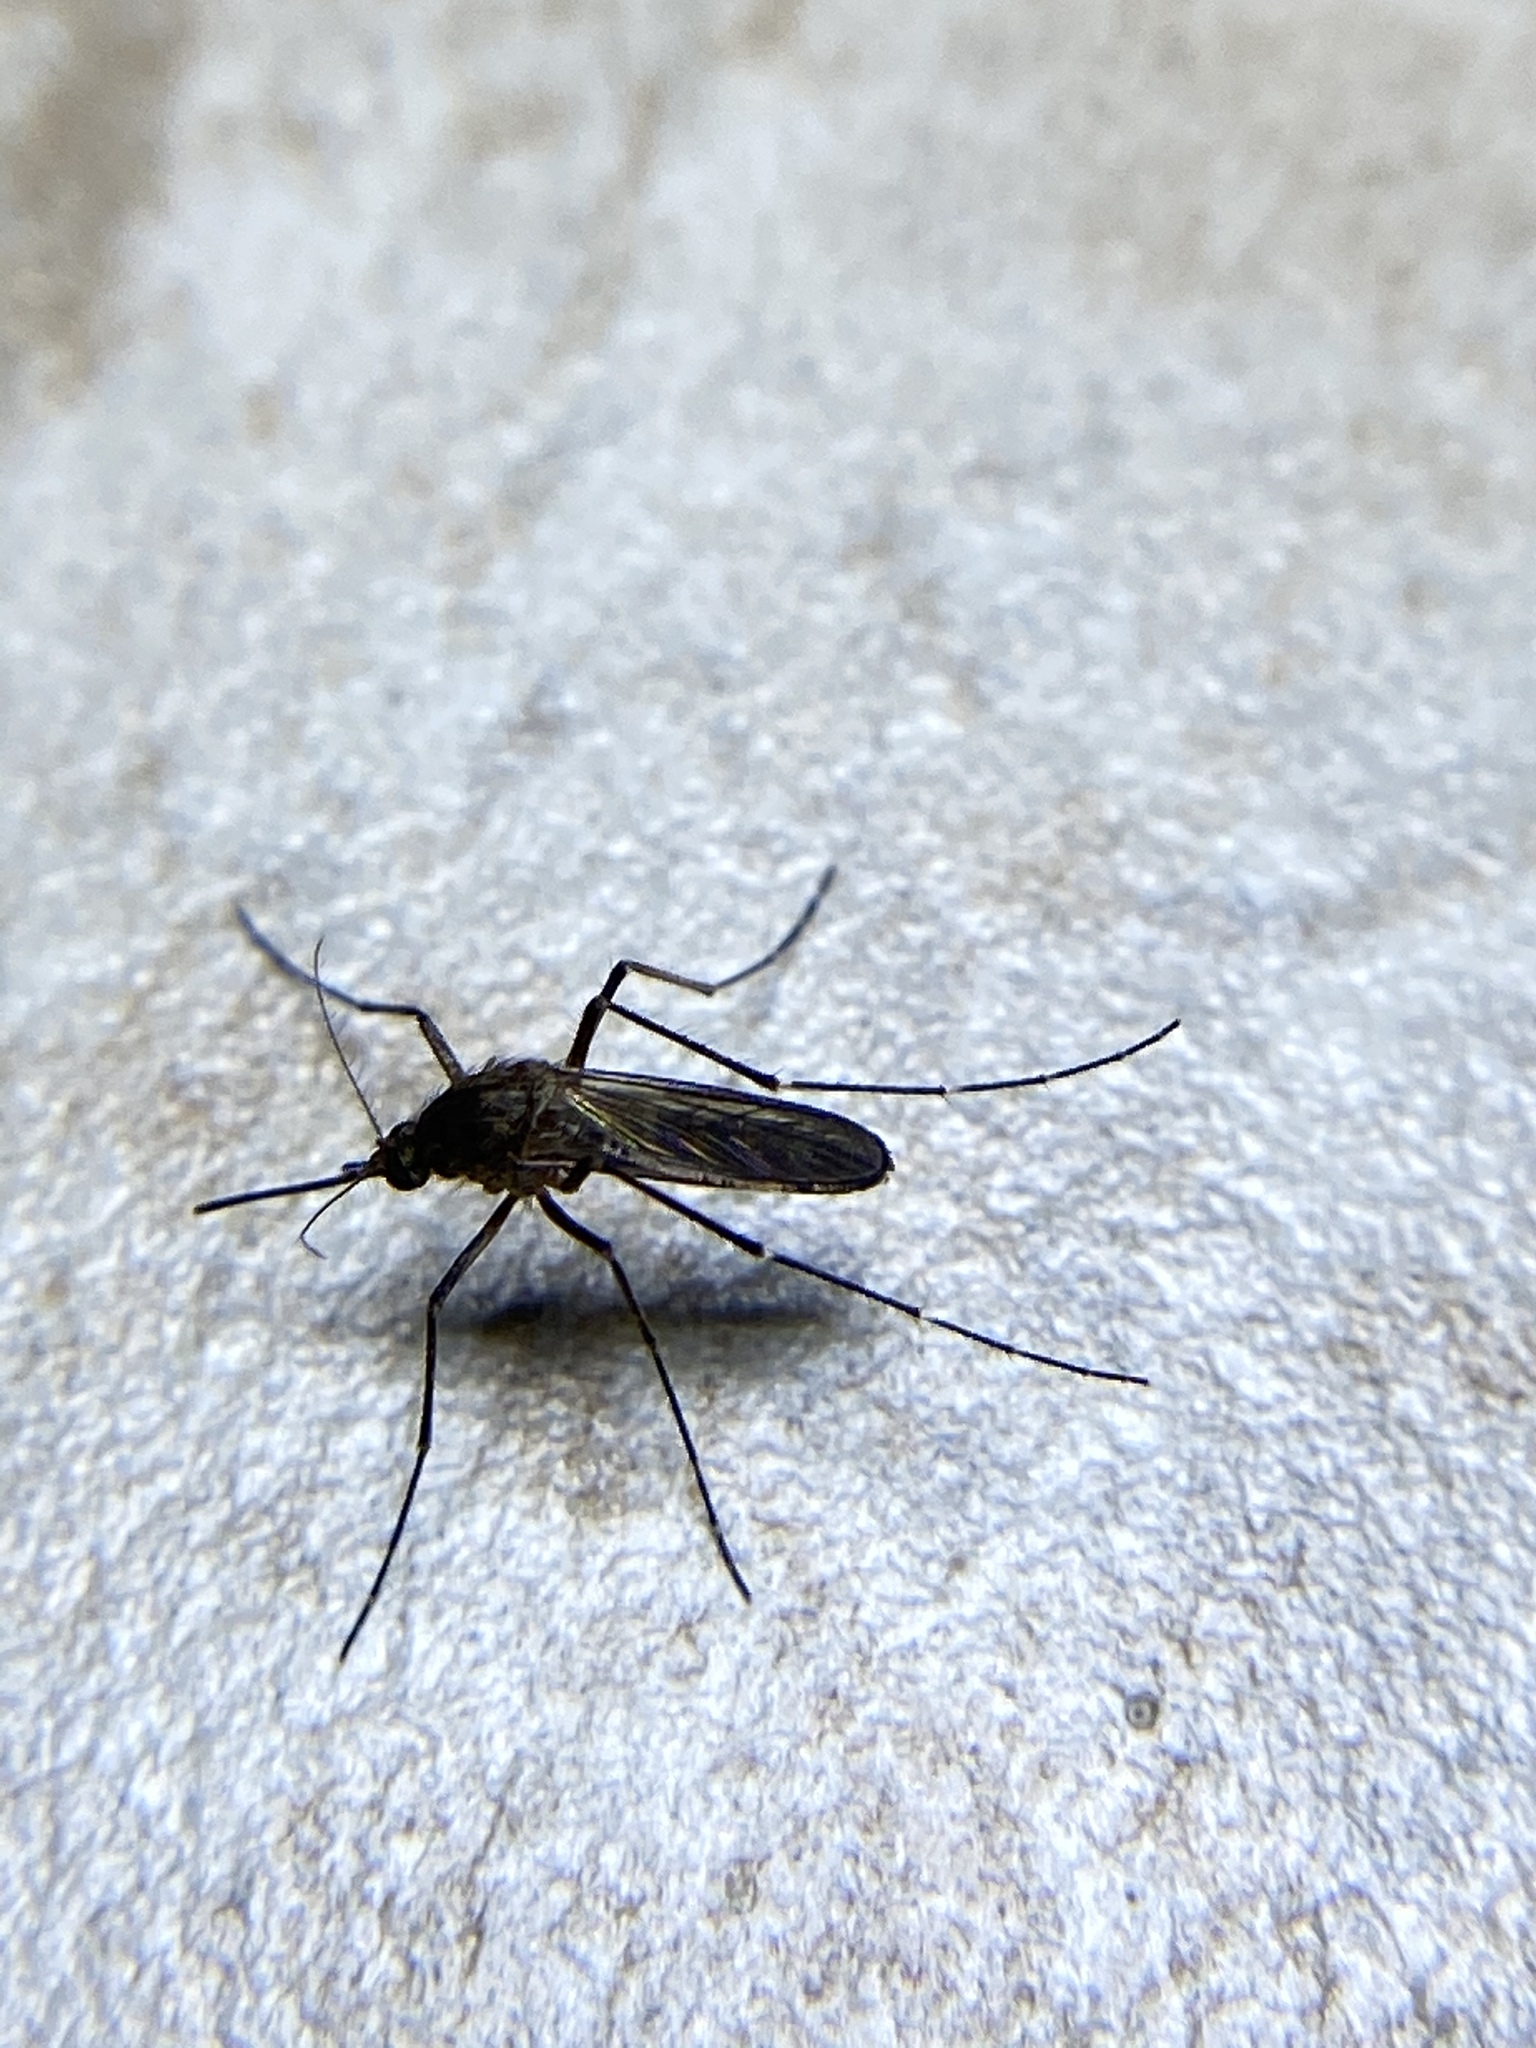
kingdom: Animalia
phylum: Arthropoda
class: Insecta
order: Diptera
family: Culicidae
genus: Aedes
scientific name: Aedes vexans
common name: Inland floodwater mosquito
